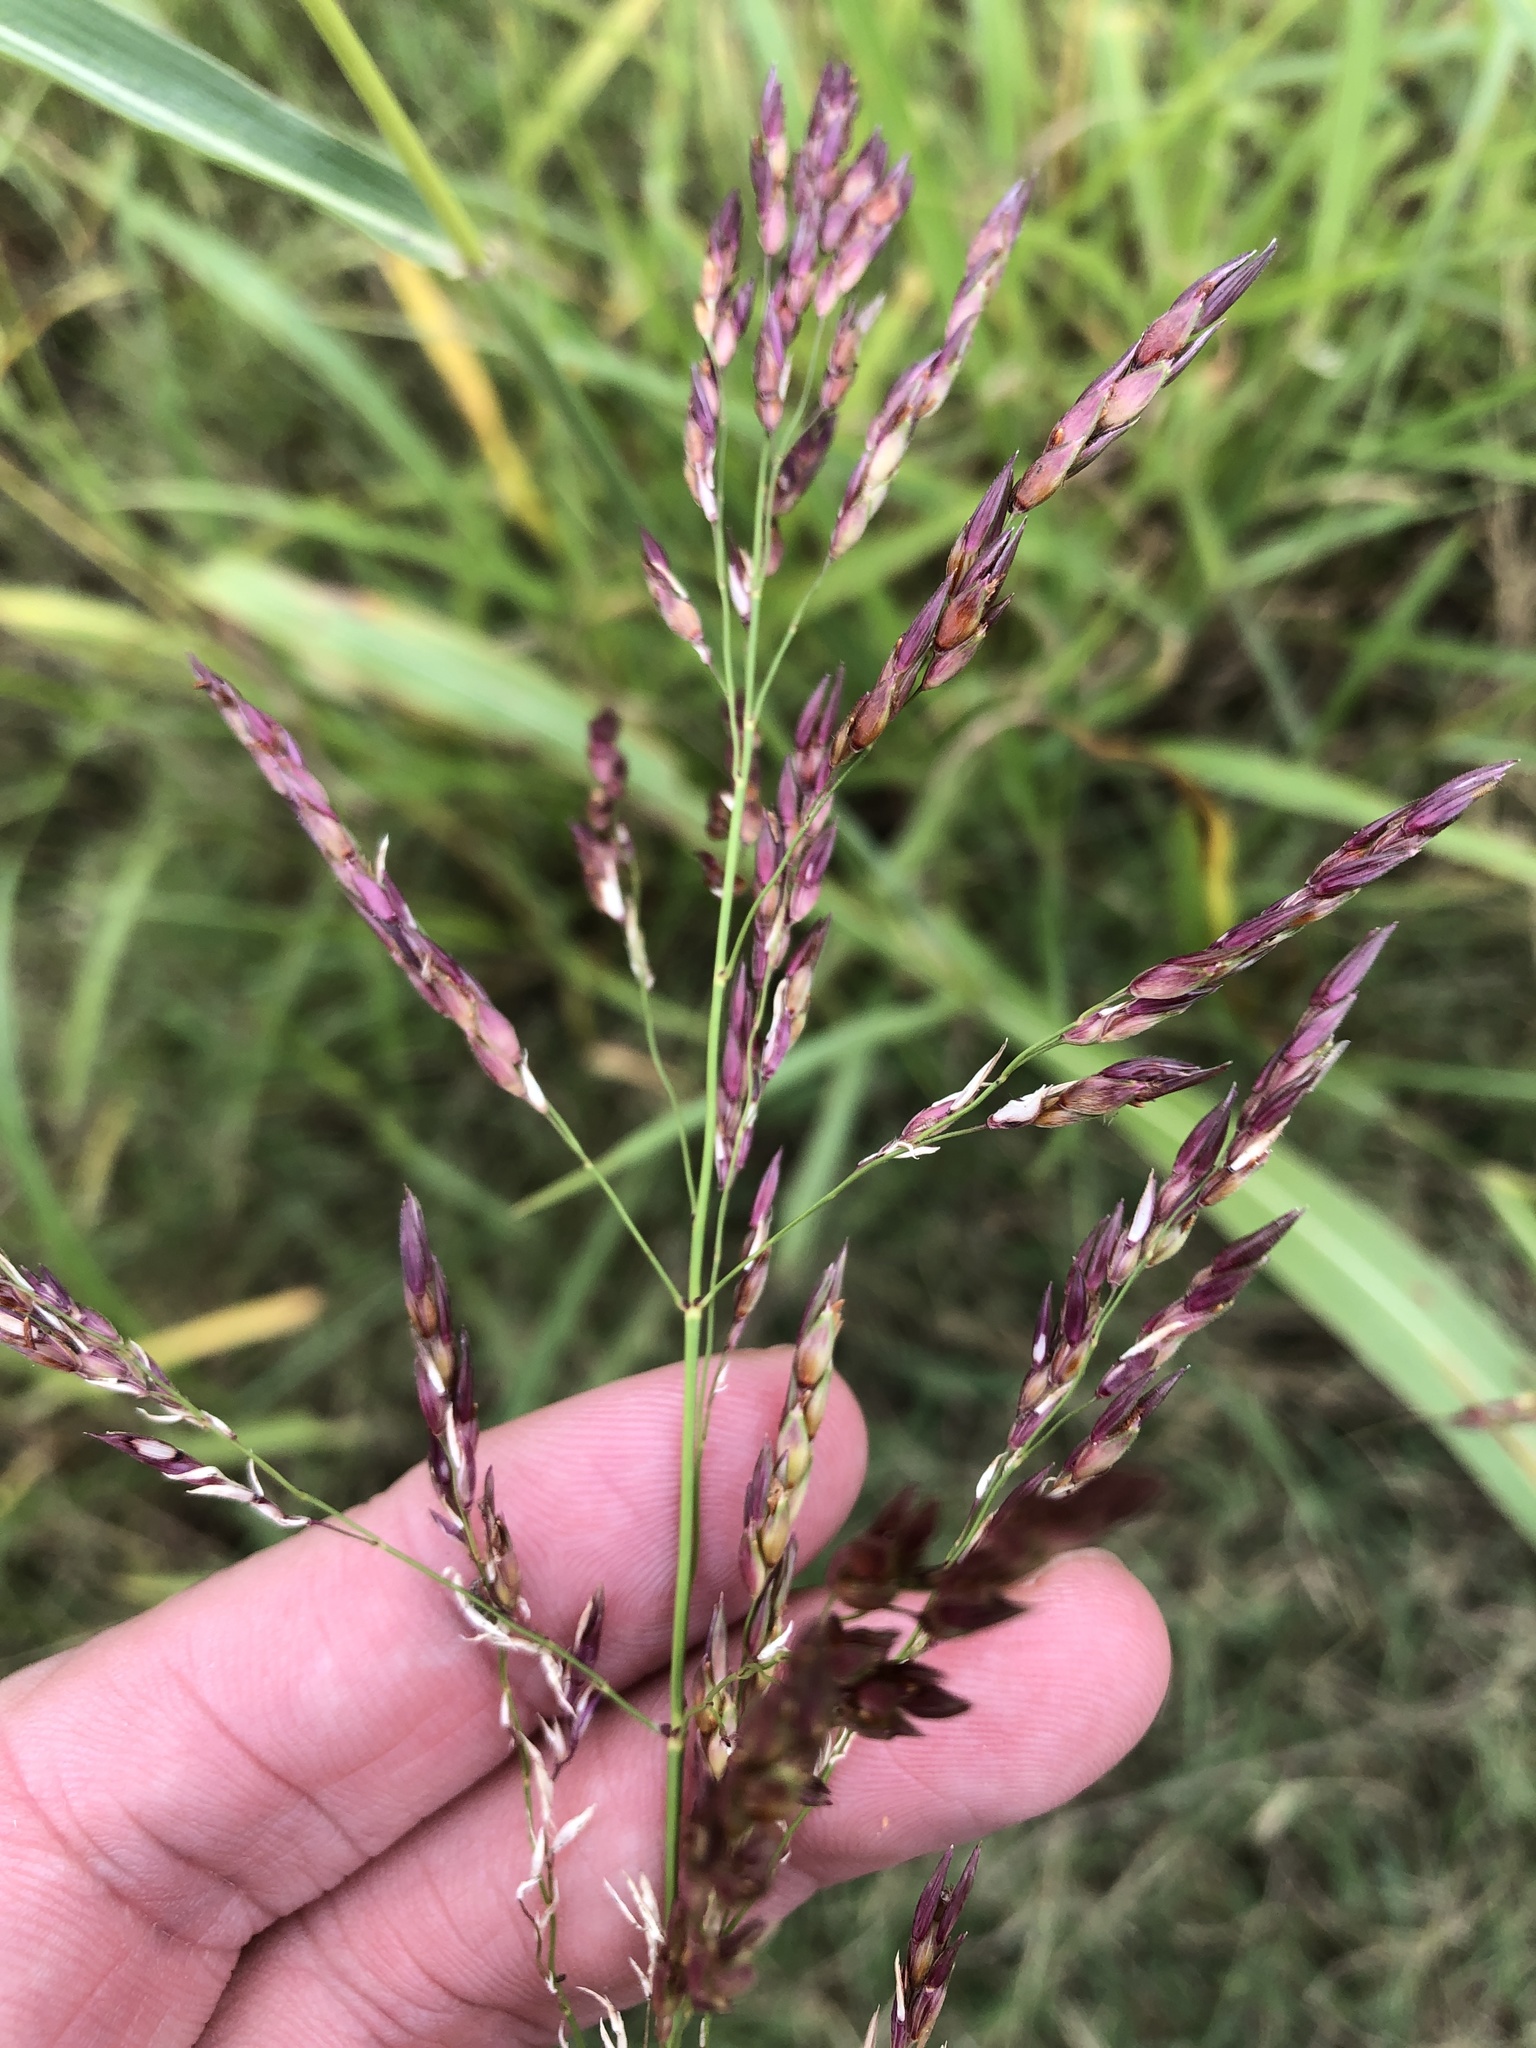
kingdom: Plantae
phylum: Tracheophyta
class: Liliopsida
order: Poales
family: Poaceae
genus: Sorghum
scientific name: Sorghum halepense
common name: Johnson-grass
